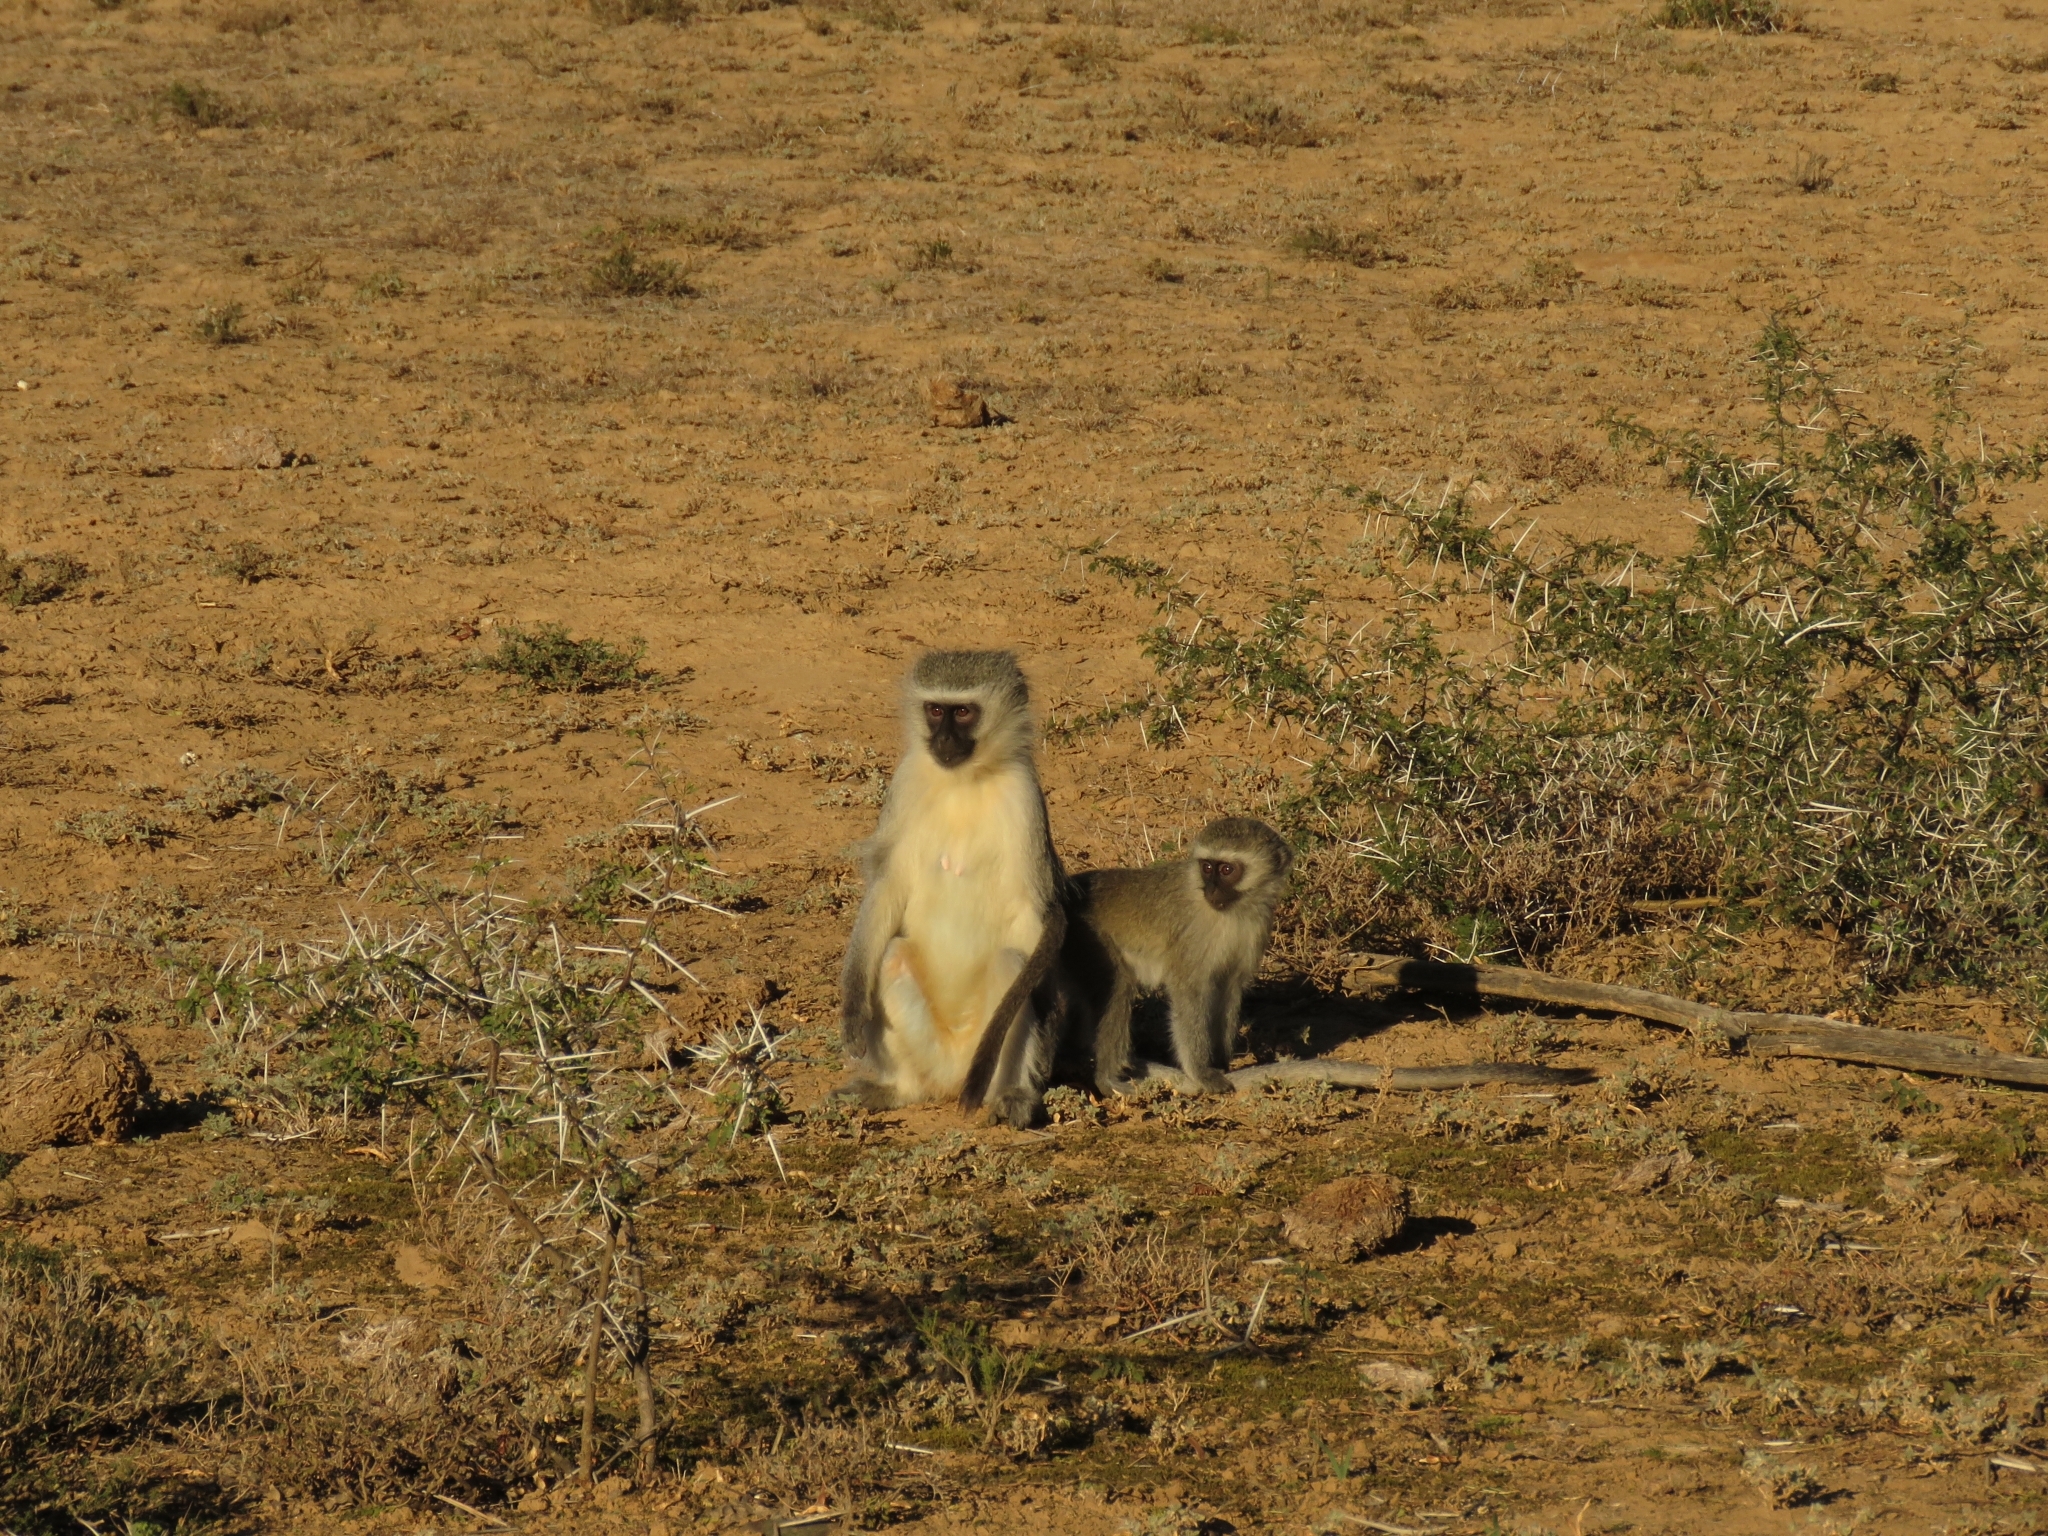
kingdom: Animalia
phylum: Chordata
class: Mammalia
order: Primates
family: Cercopithecidae
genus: Chlorocebus
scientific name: Chlorocebus pygerythrus
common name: Vervet monkey
